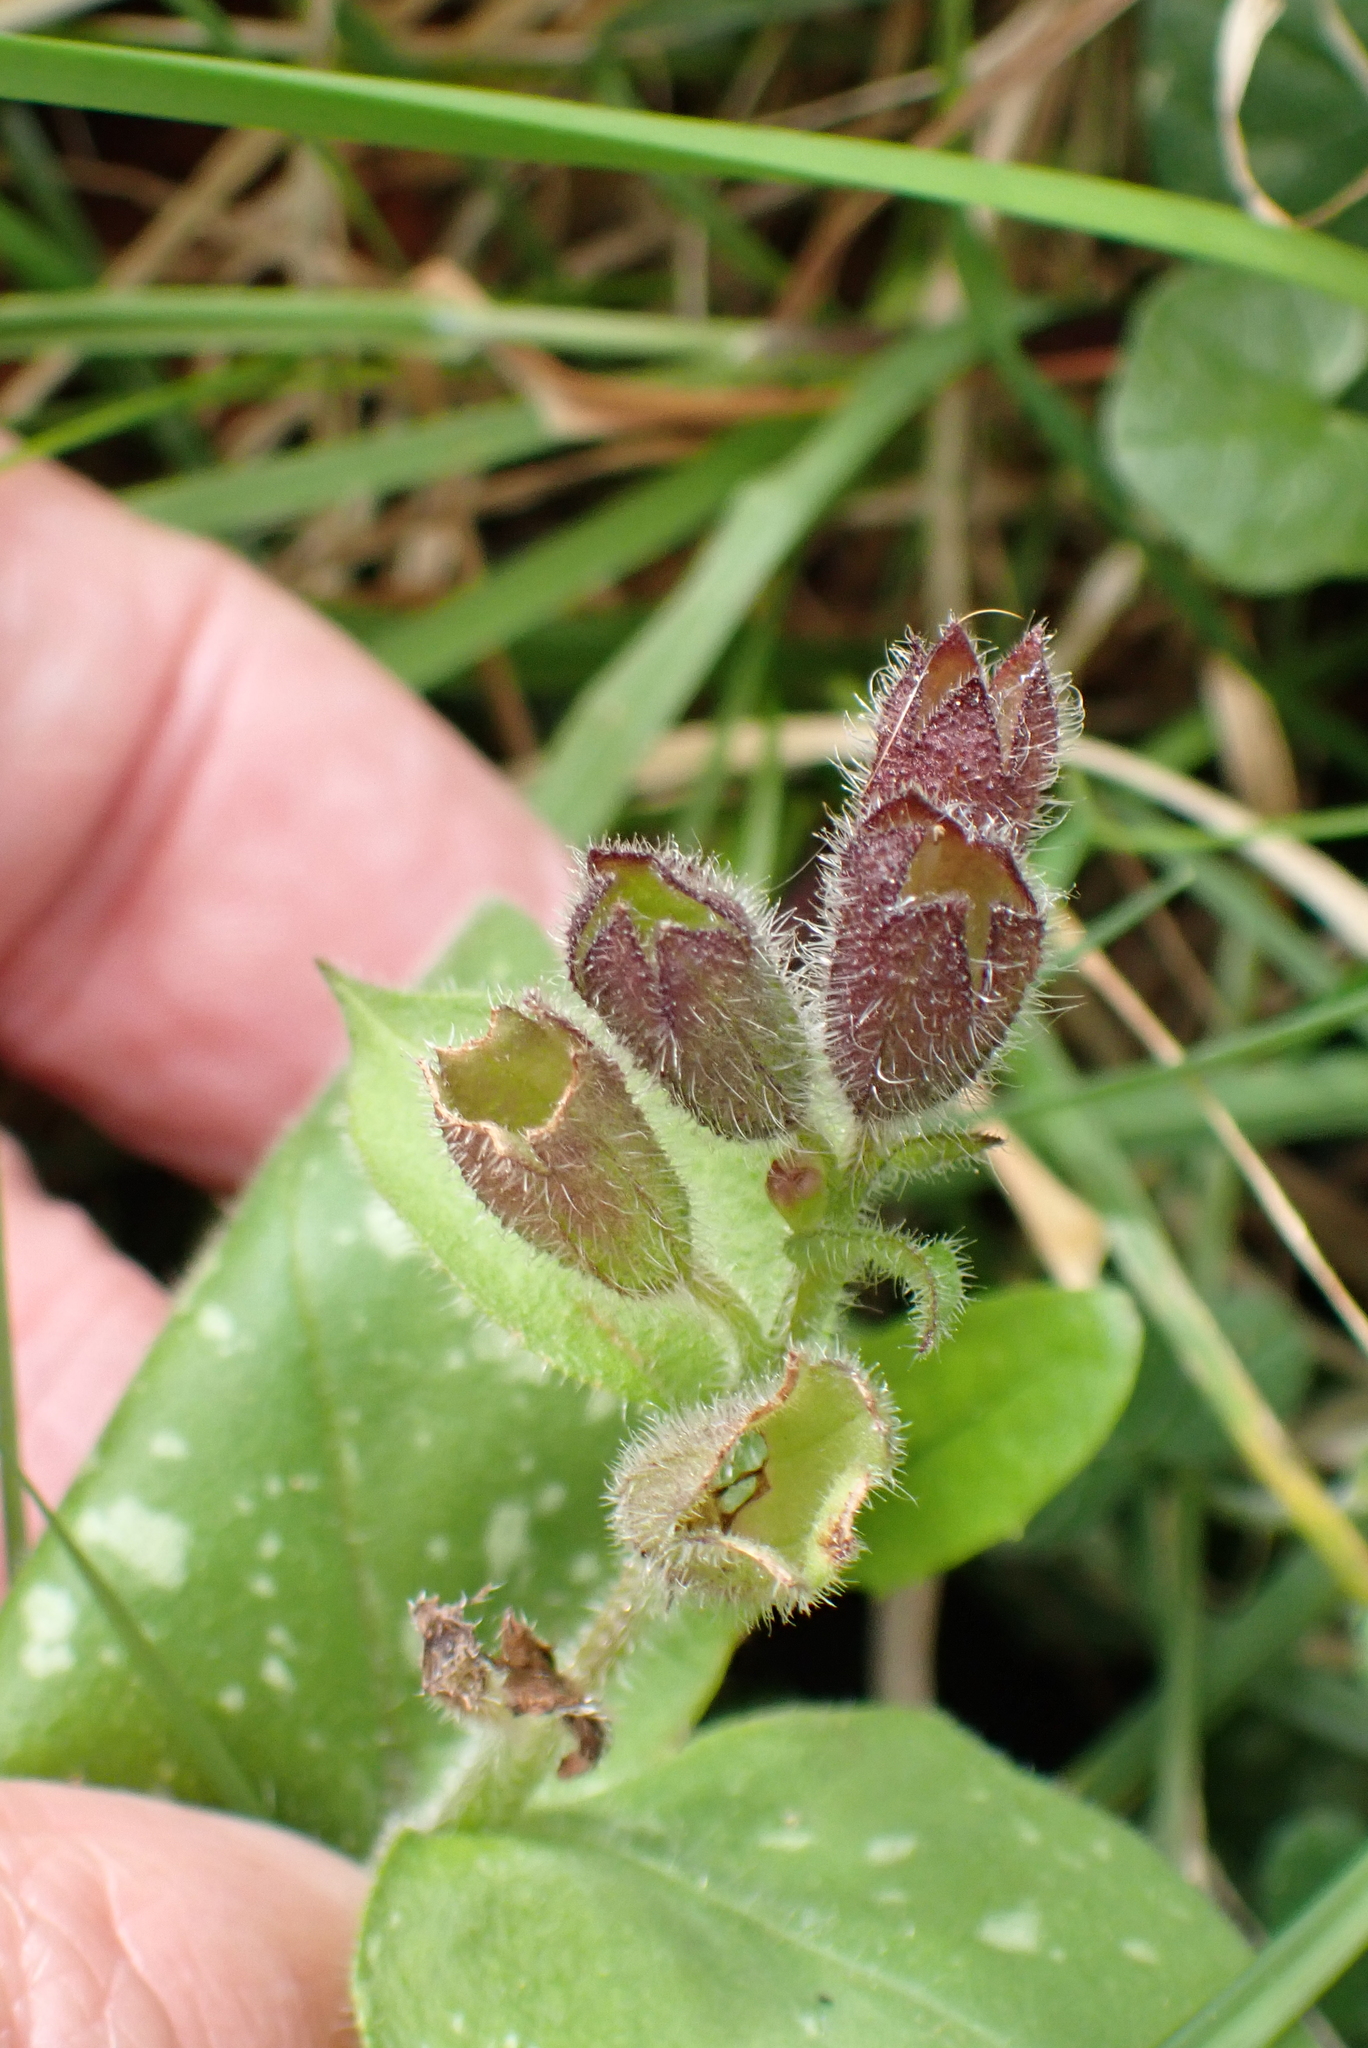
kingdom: Plantae
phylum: Tracheophyta
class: Magnoliopsida
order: Boraginales
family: Boraginaceae
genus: Pulmonaria
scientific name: Pulmonaria officinalis
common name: Lungwort
